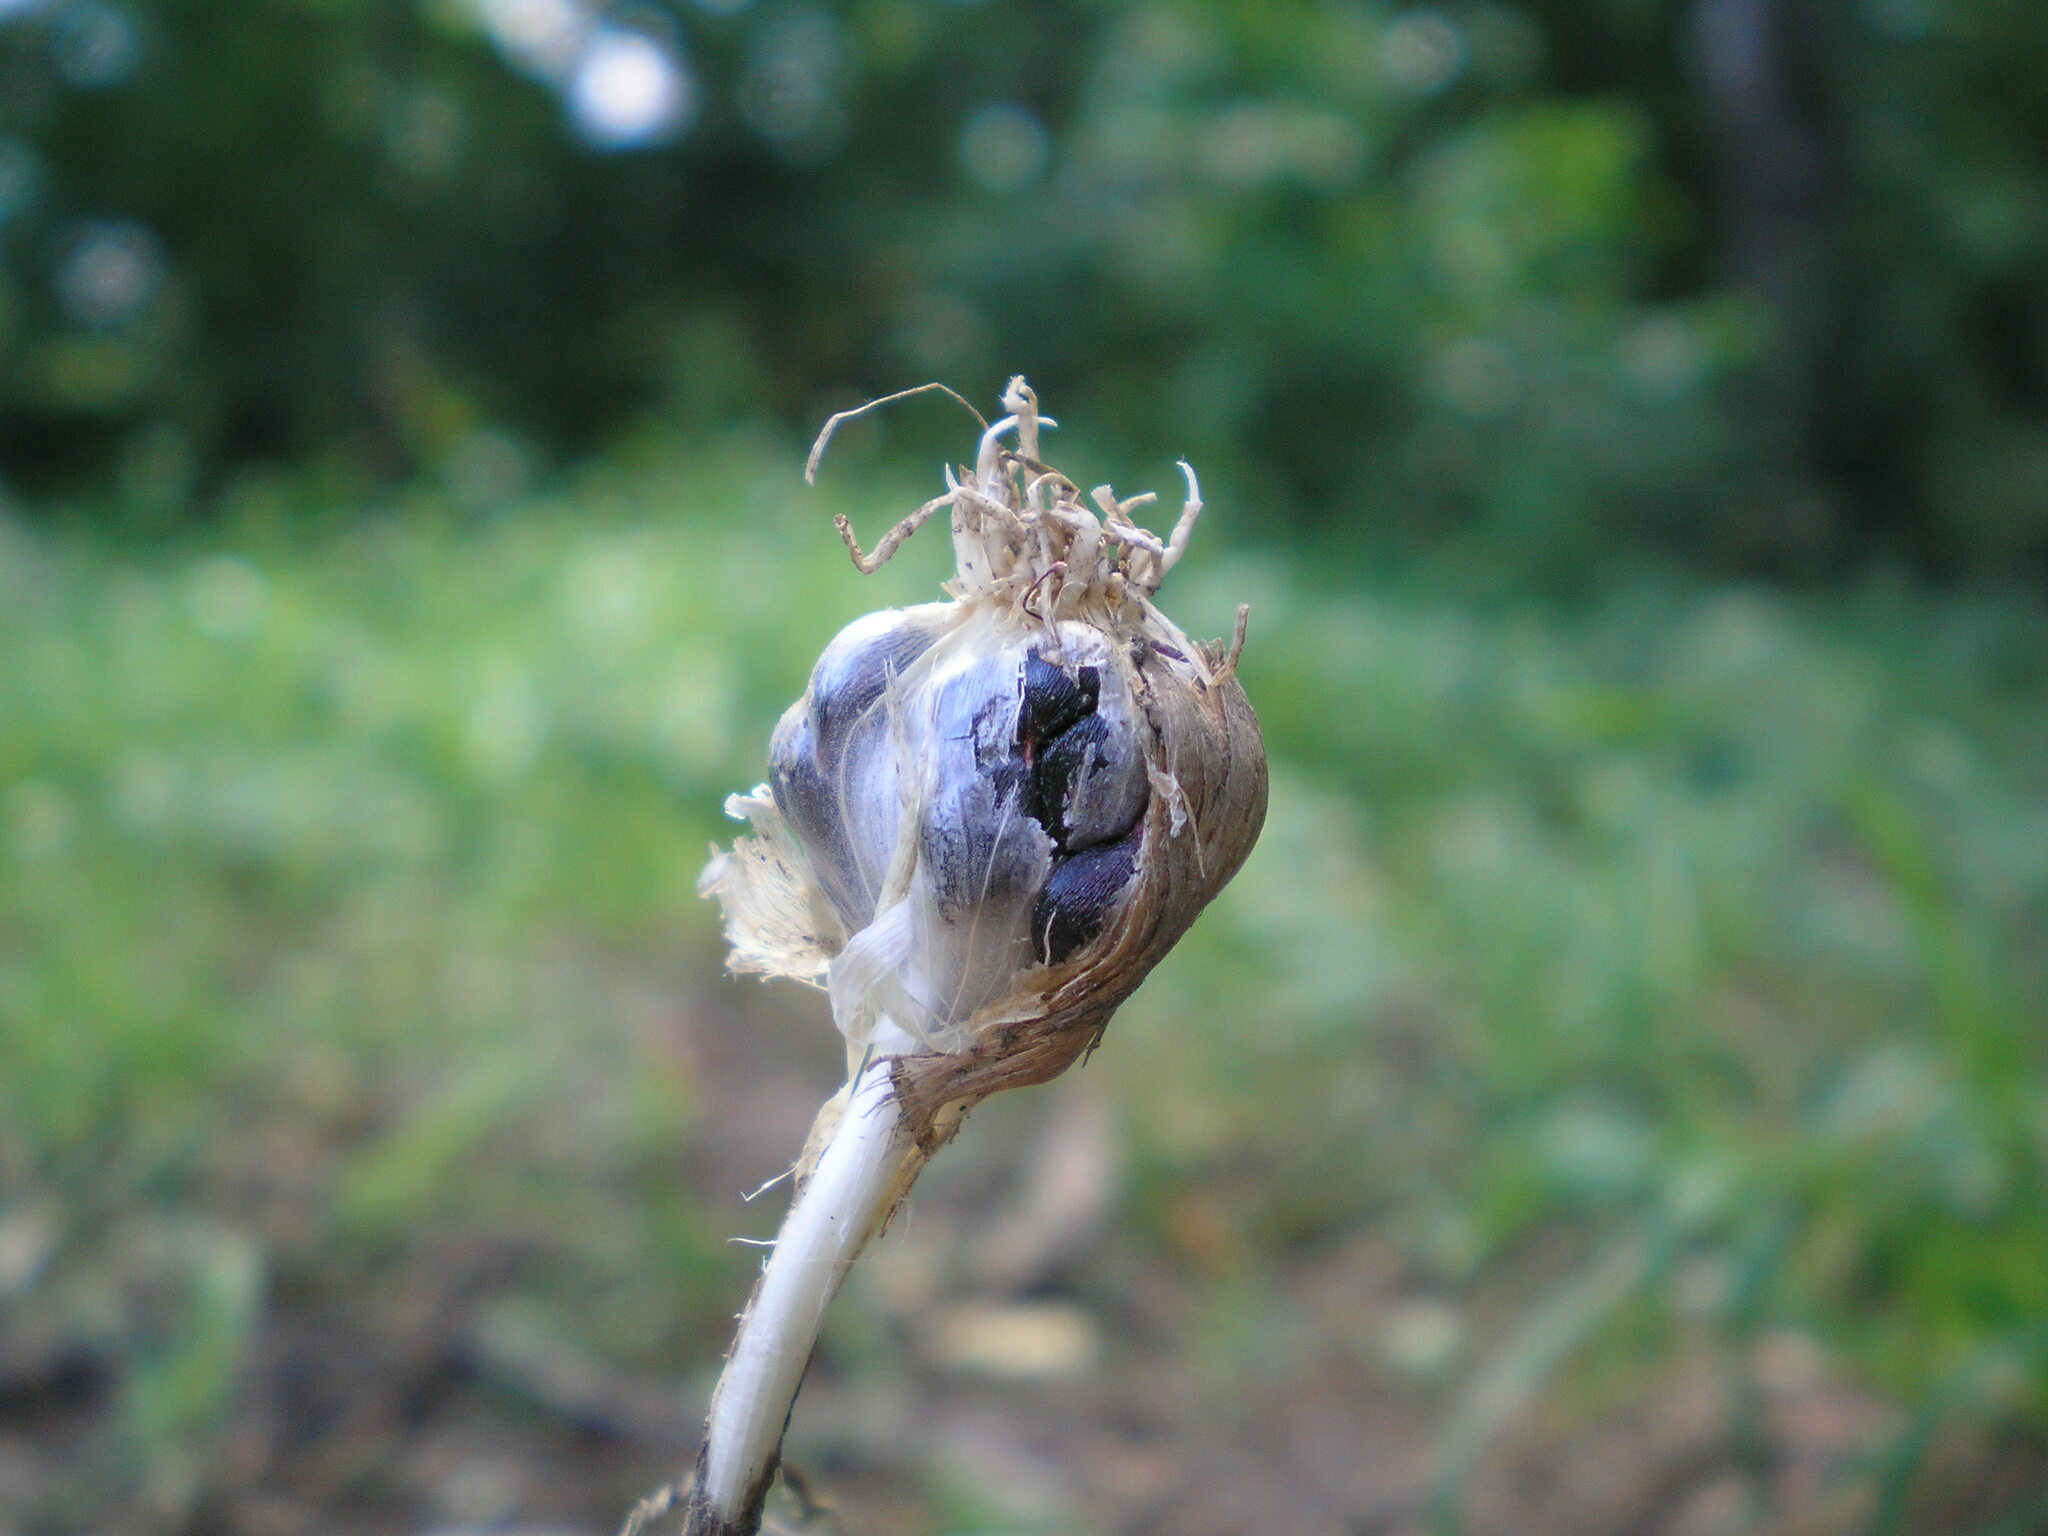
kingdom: Plantae
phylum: Tracheophyta
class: Liliopsida
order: Asparagales
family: Amaryllidaceae
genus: Allium
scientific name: Allium rotundum
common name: Sand leek
